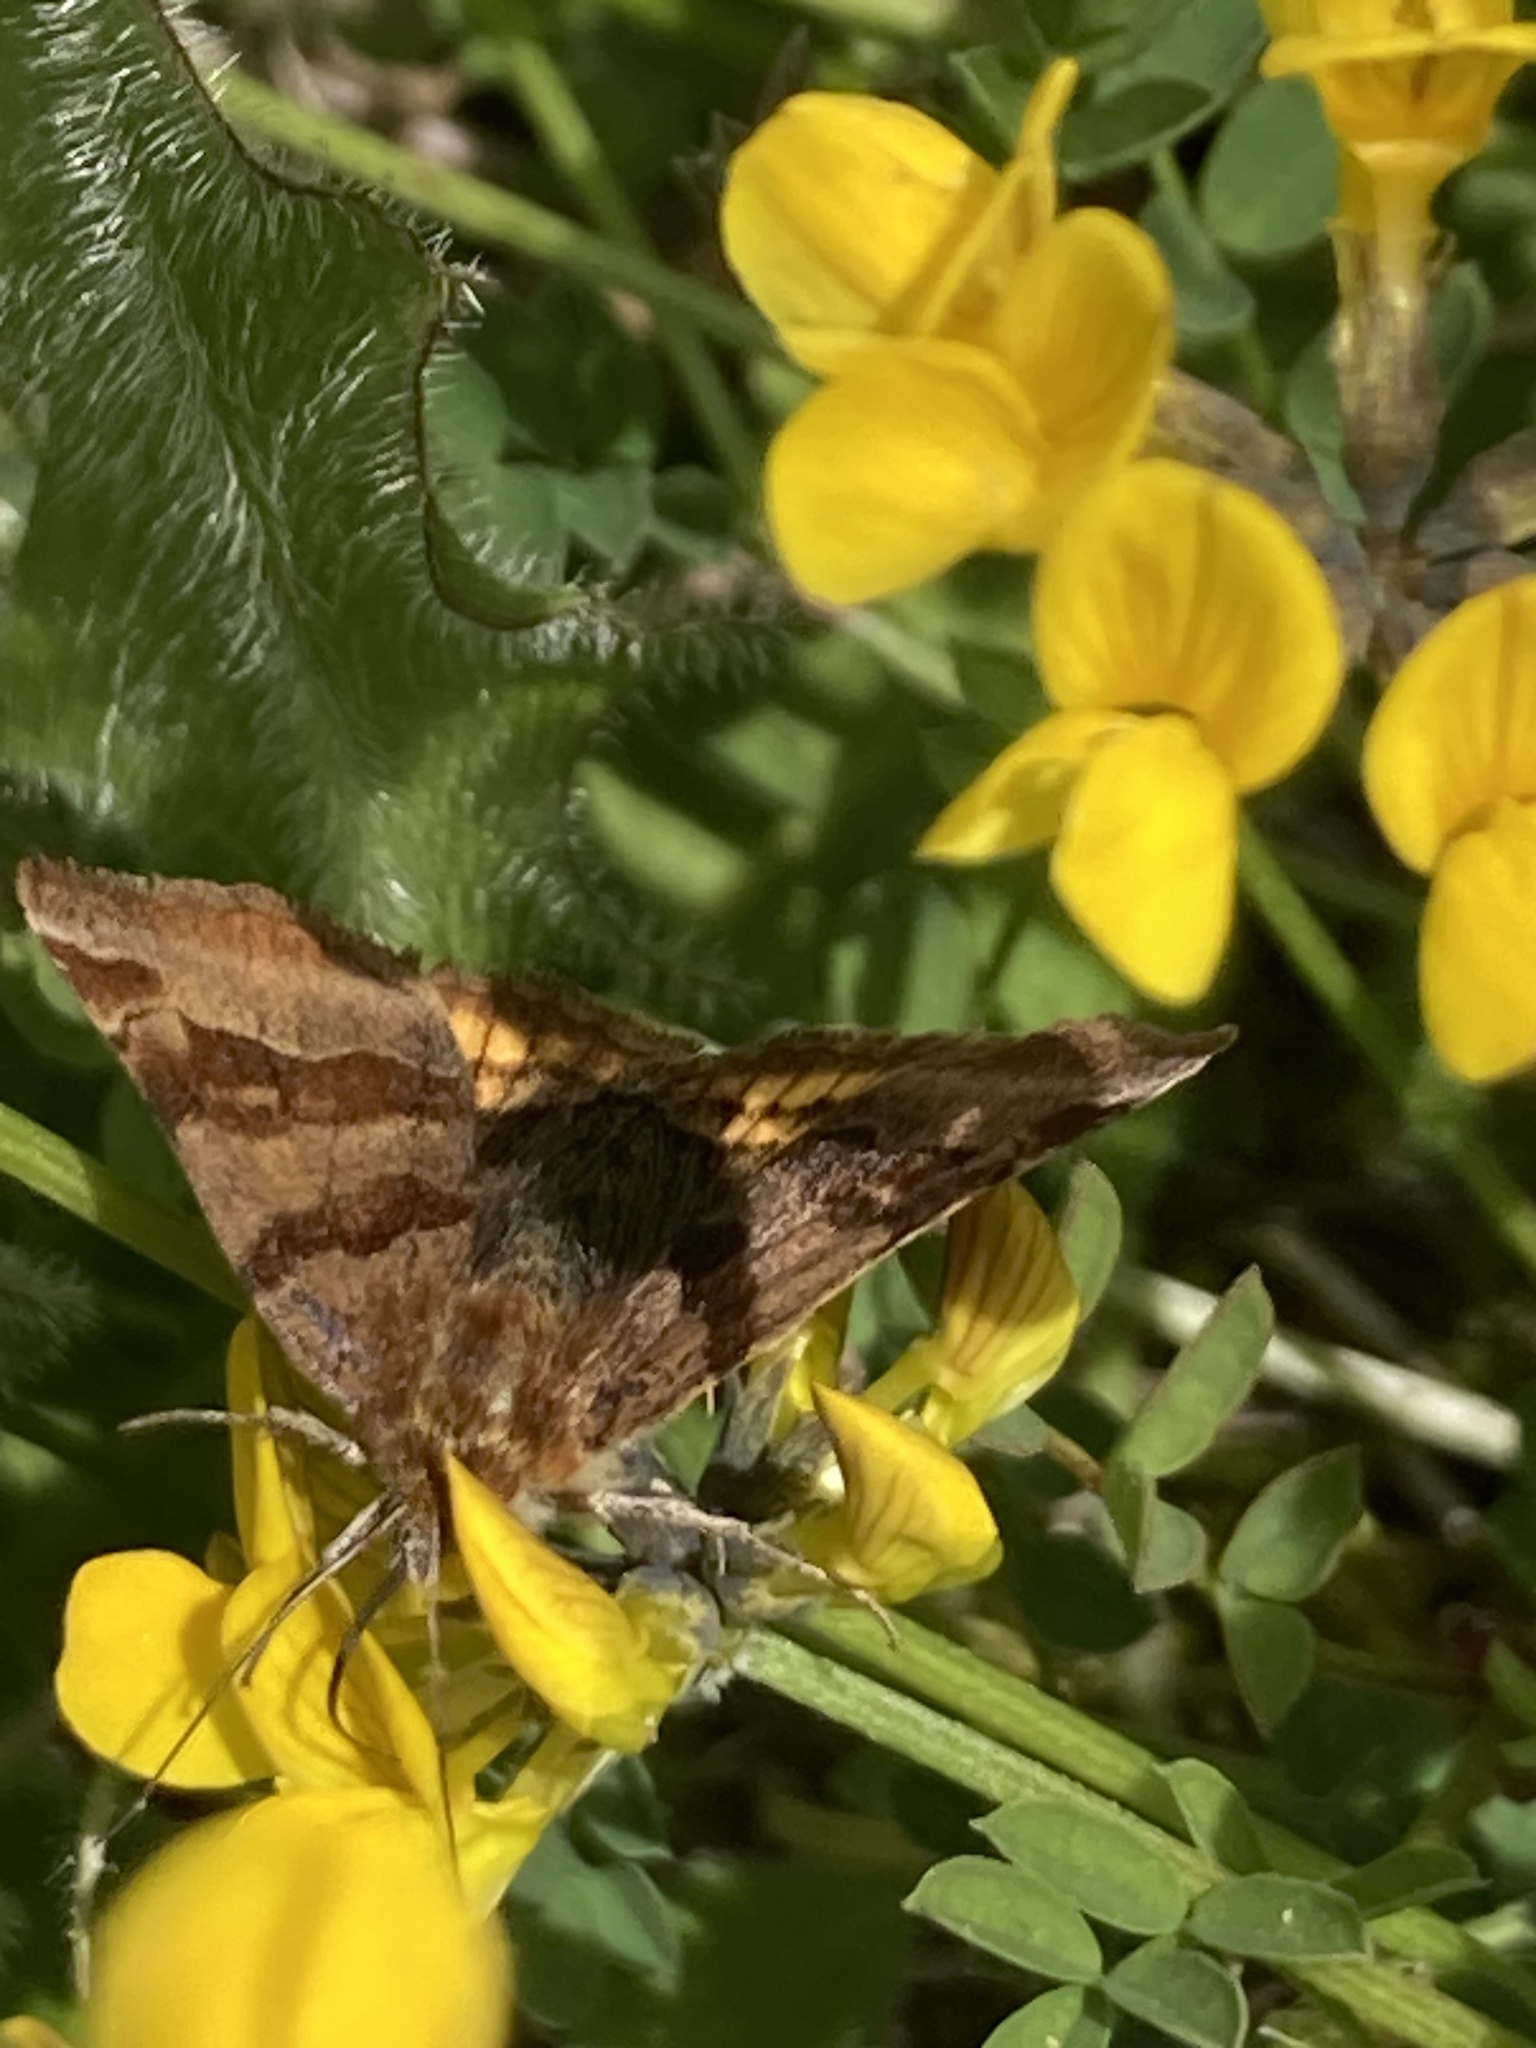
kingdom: Animalia
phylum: Arthropoda
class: Insecta
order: Lepidoptera
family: Erebidae
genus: Euclidia
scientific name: Euclidia glyphica
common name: Burnet companion
